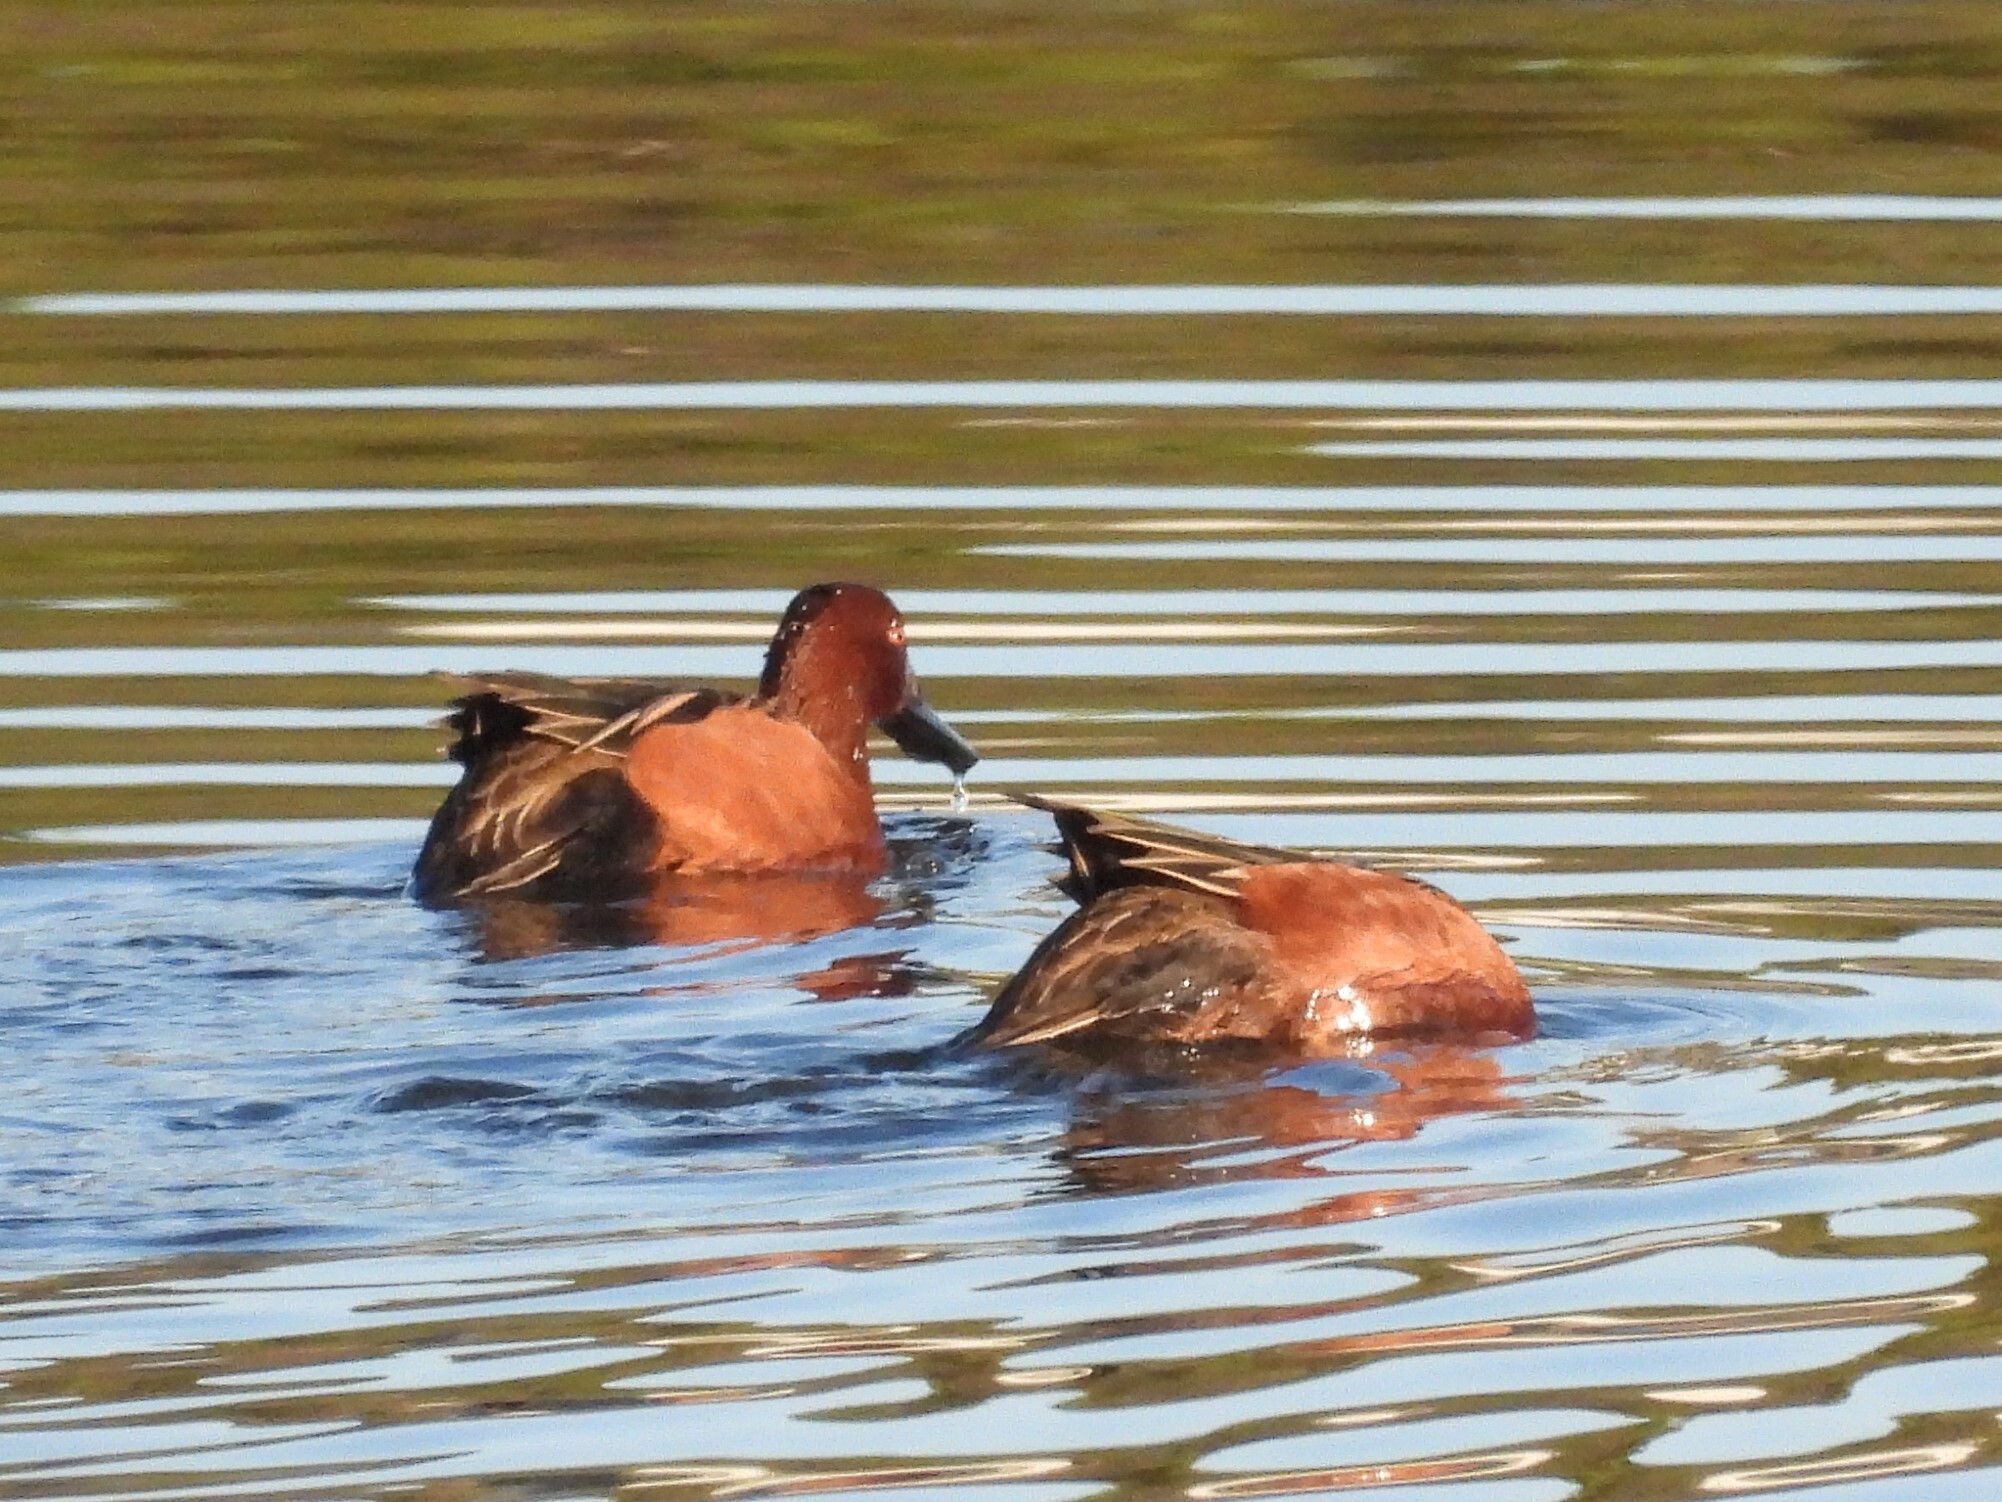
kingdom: Animalia
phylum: Chordata
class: Aves
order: Anseriformes
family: Anatidae
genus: Spatula
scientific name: Spatula cyanoptera
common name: Cinnamon teal
